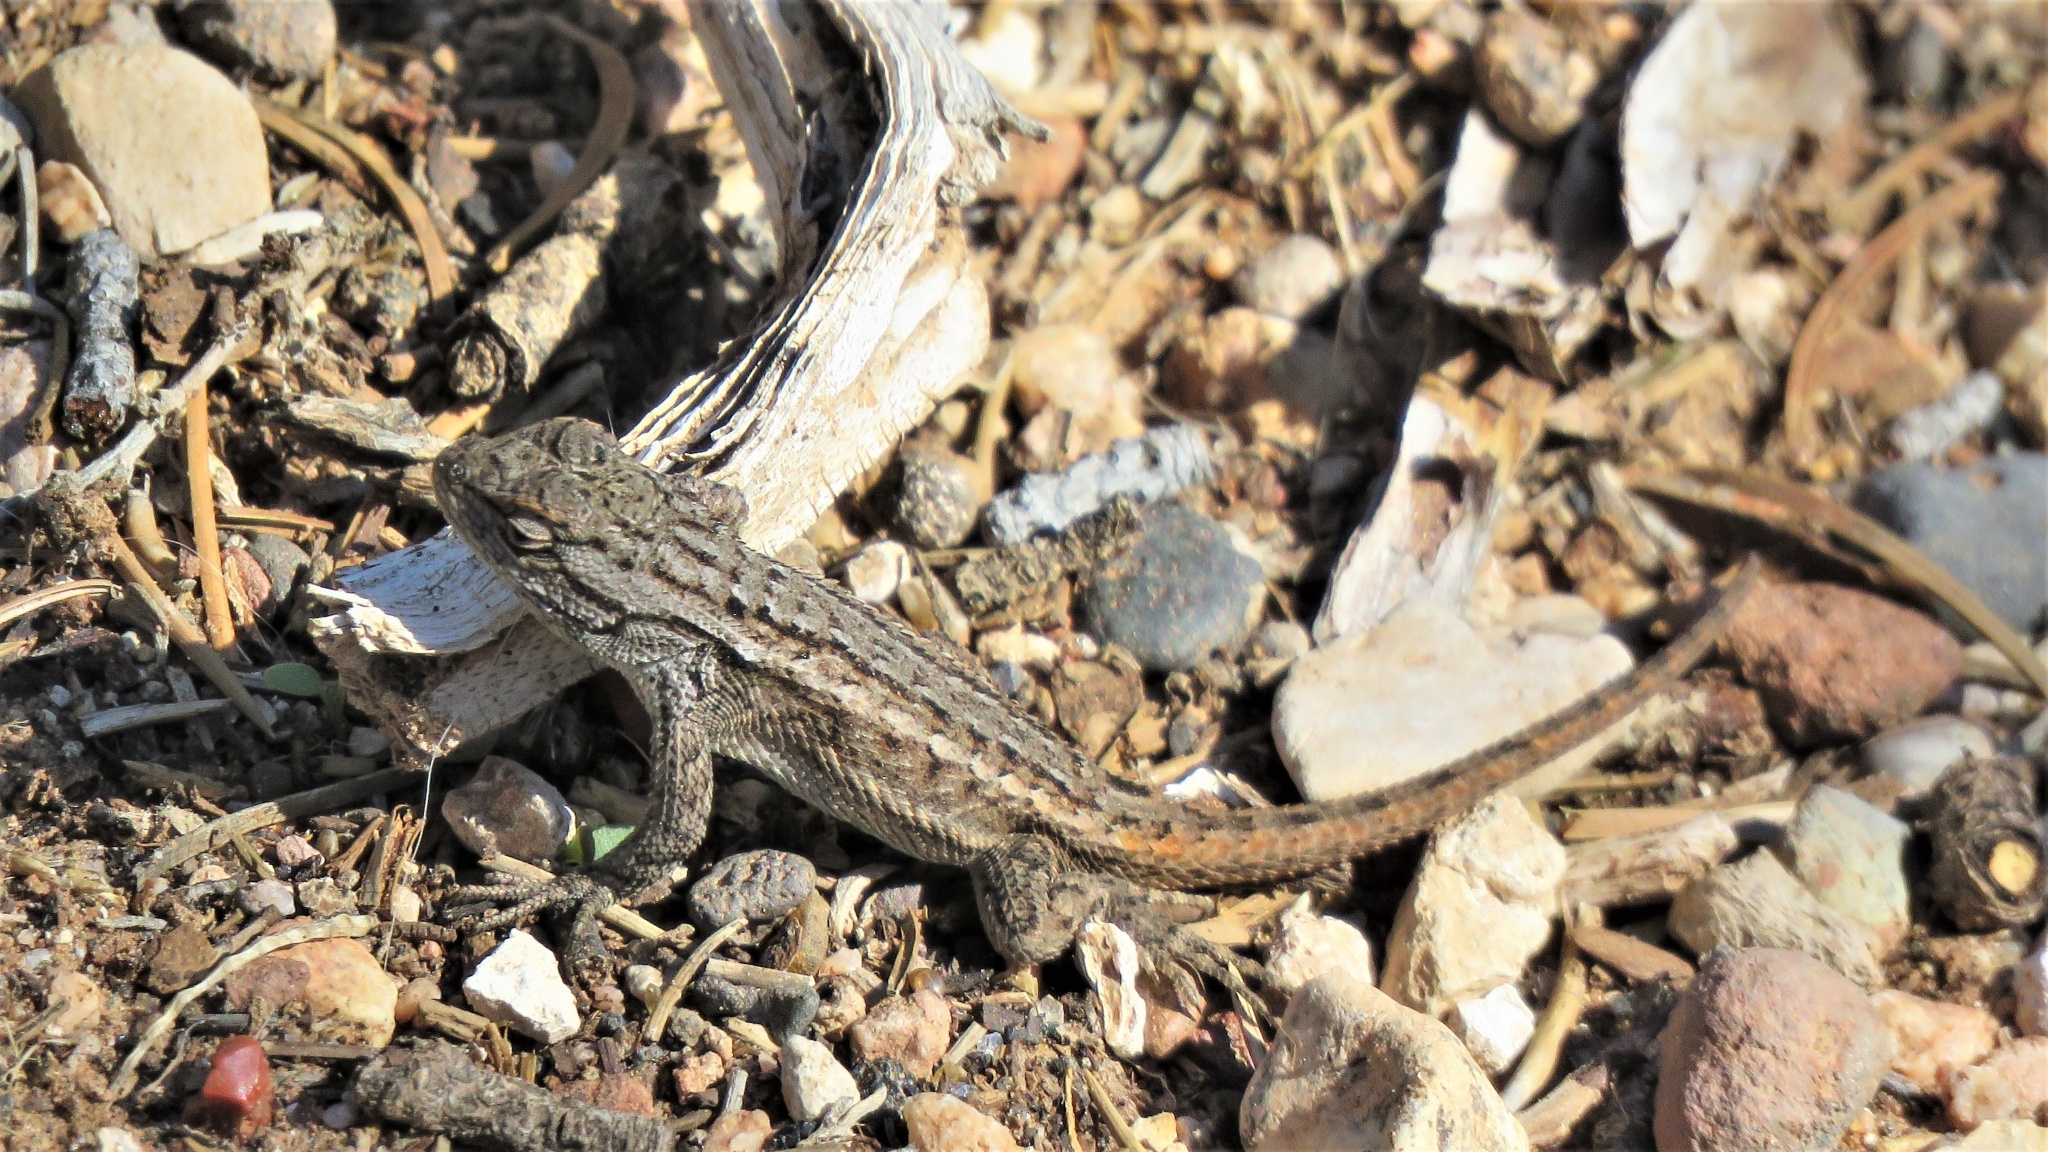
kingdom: Animalia
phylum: Chordata
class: Squamata
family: Phrynosomatidae
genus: Sceloporus
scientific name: Sceloporus tristichus
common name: Plateau fence lizard
